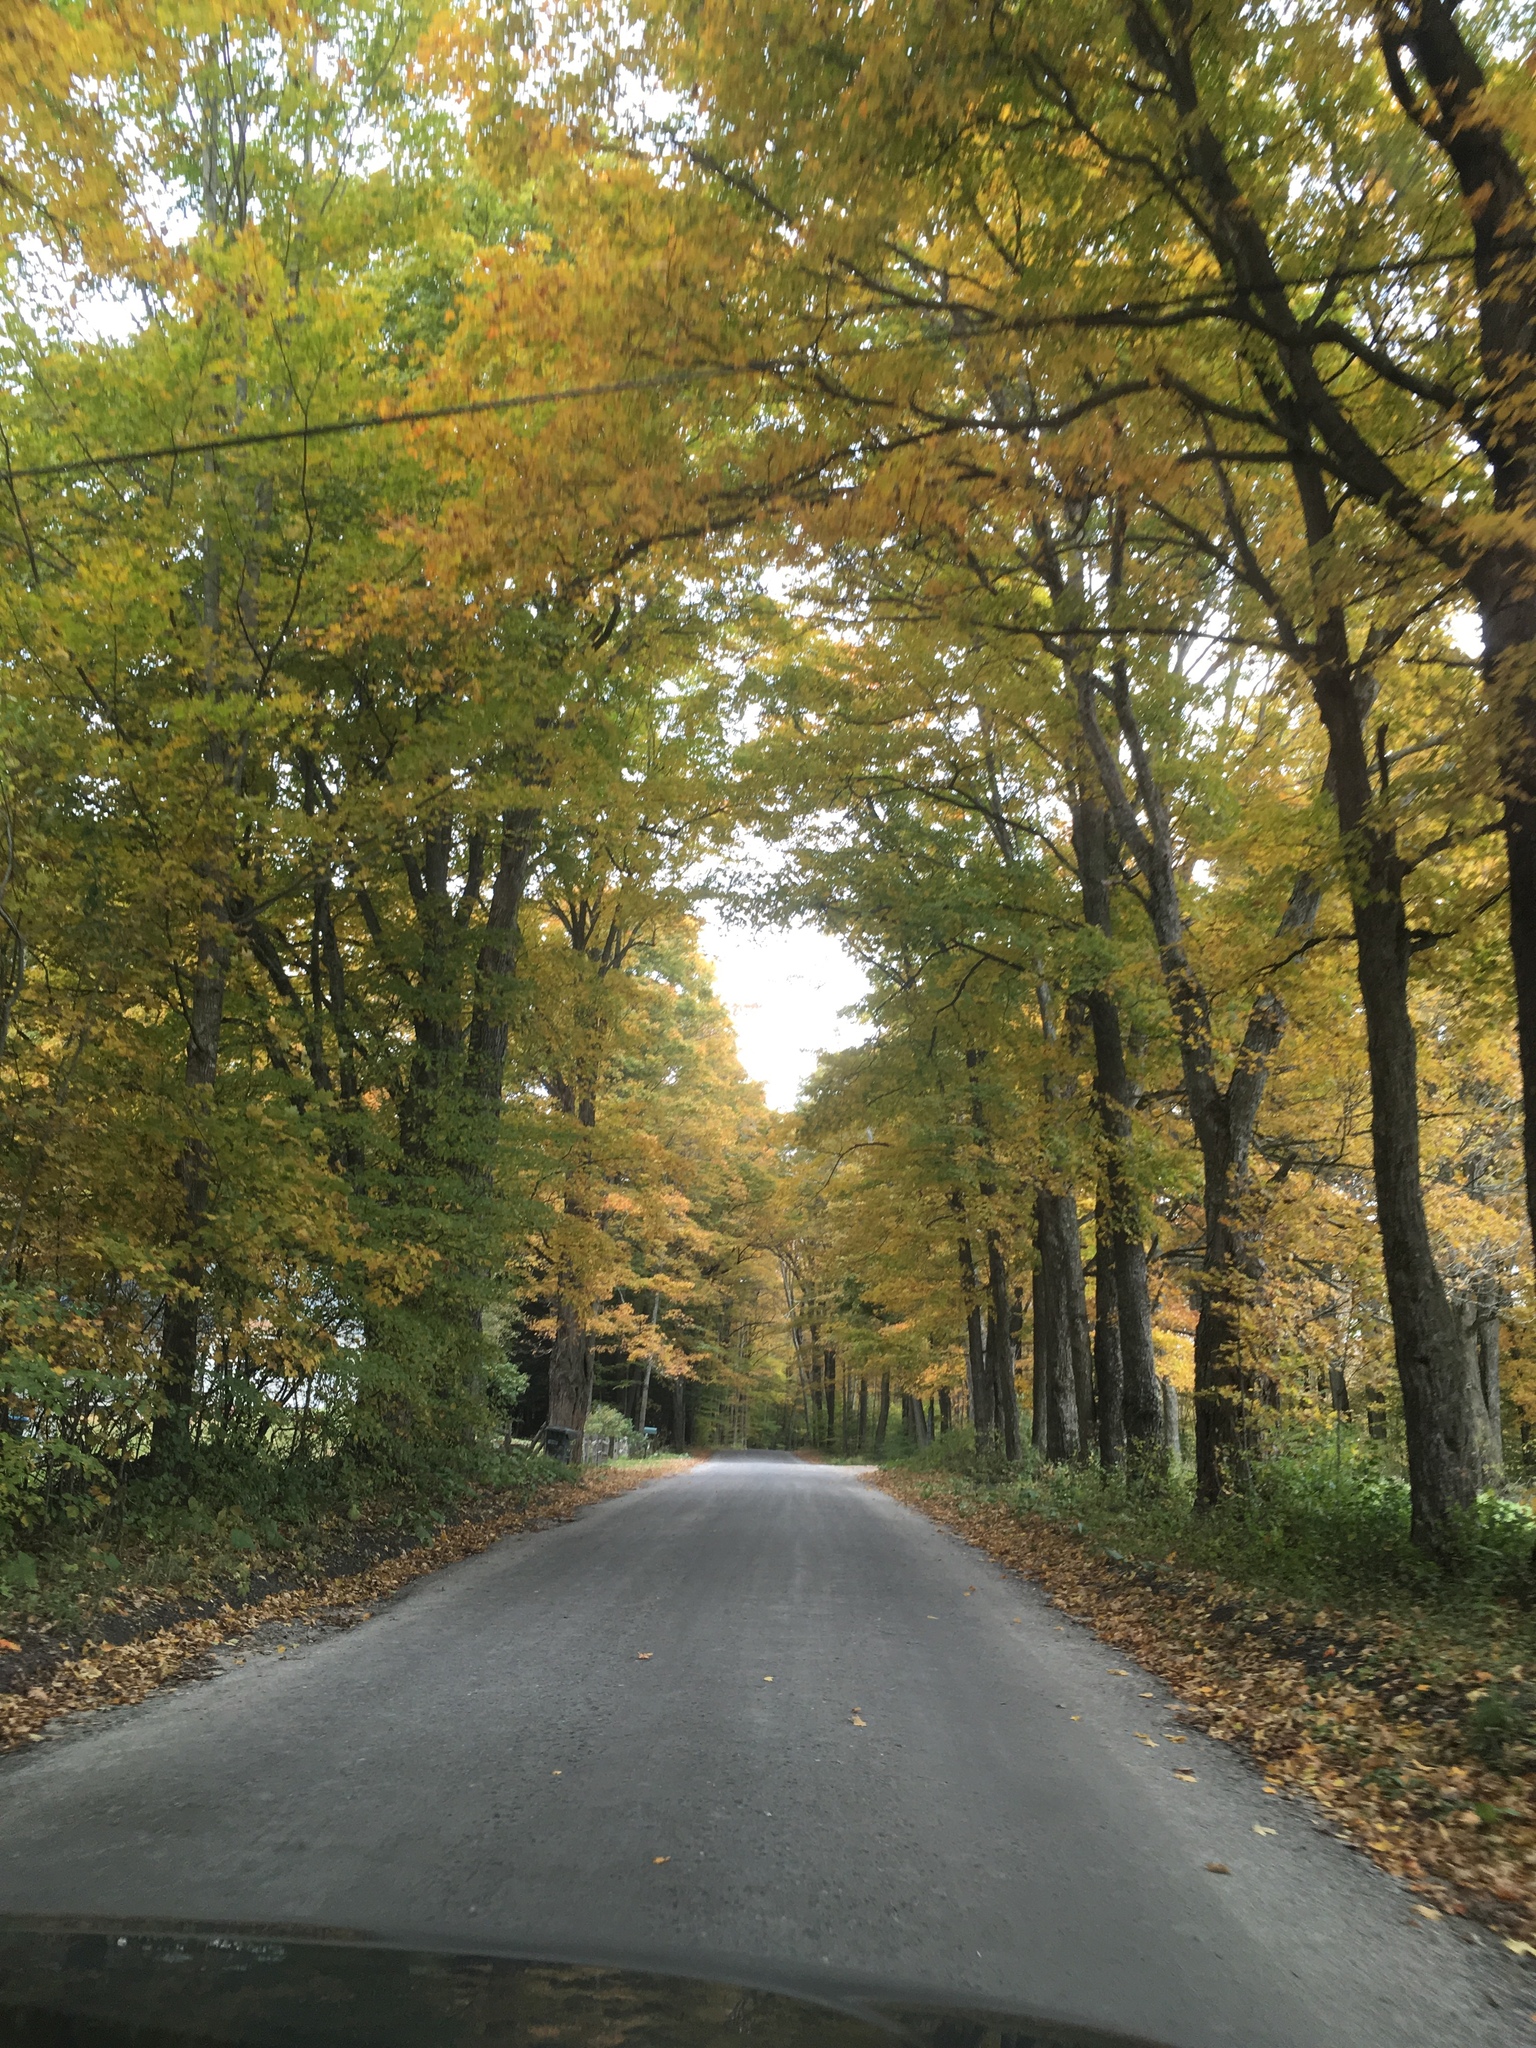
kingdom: Plantae
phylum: Tracheophyta
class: Magnoliopsida
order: Sapindales
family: Sapindaceae
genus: Acer
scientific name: Acer saccharum
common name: Sugar maple
